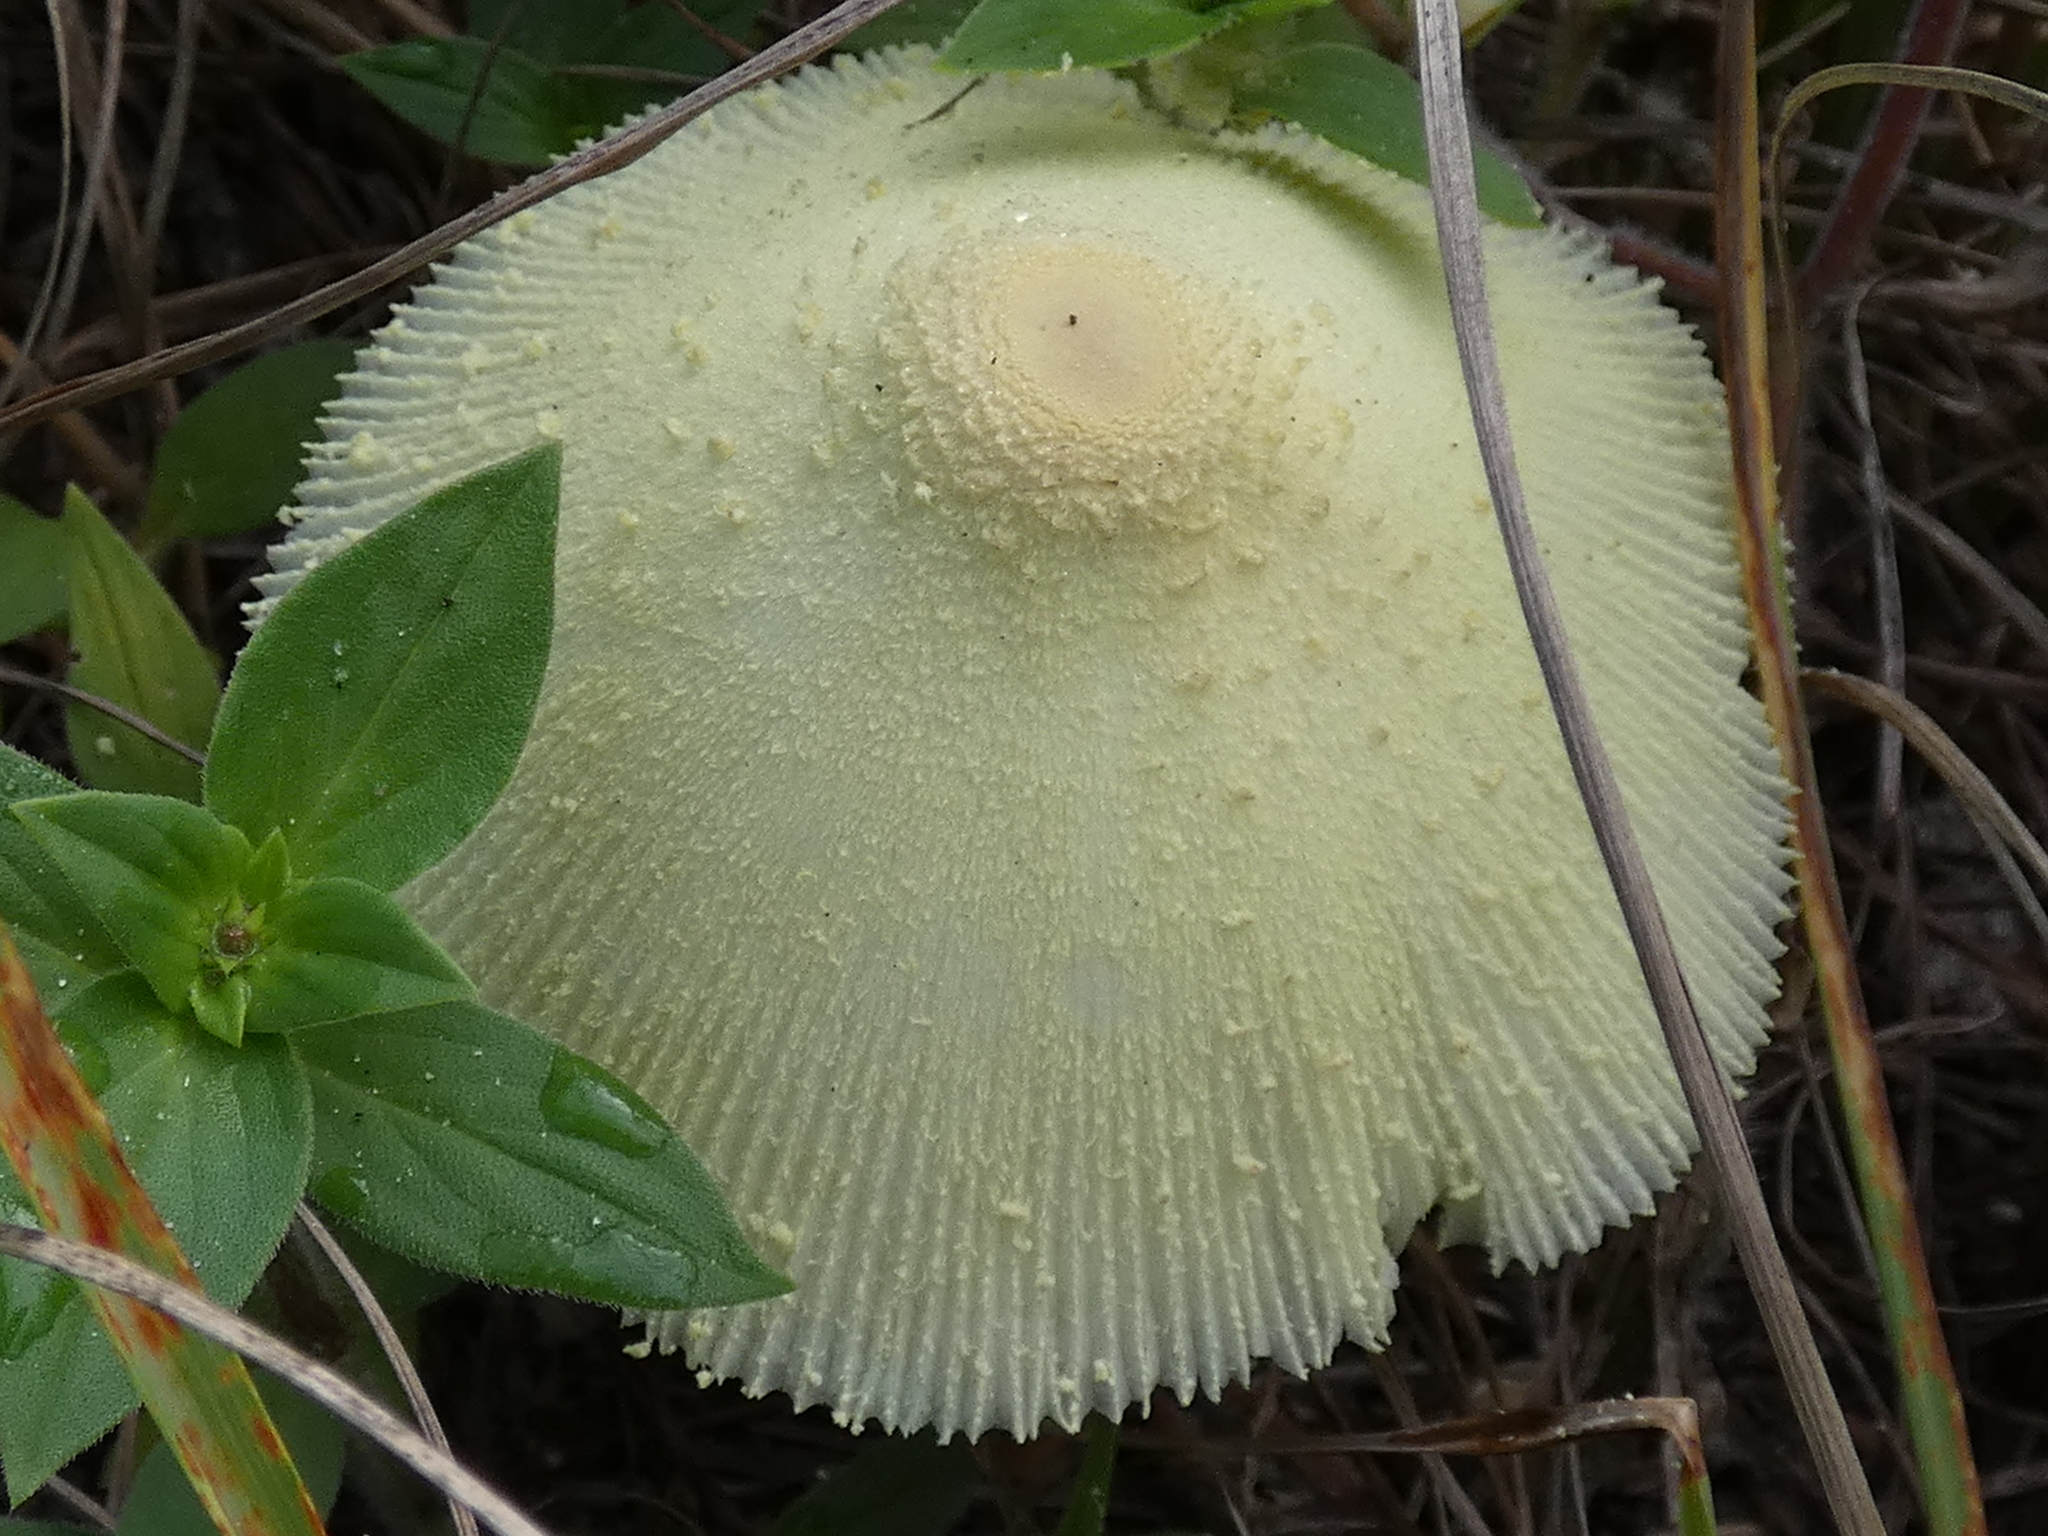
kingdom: Fungi
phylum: Basidiomycota
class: Agaricomycetes
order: Agaricales
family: Agaricaceae
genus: Leucocoprinus
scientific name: Leucocoprinus birnbaumii
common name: Plantpot dapperling
